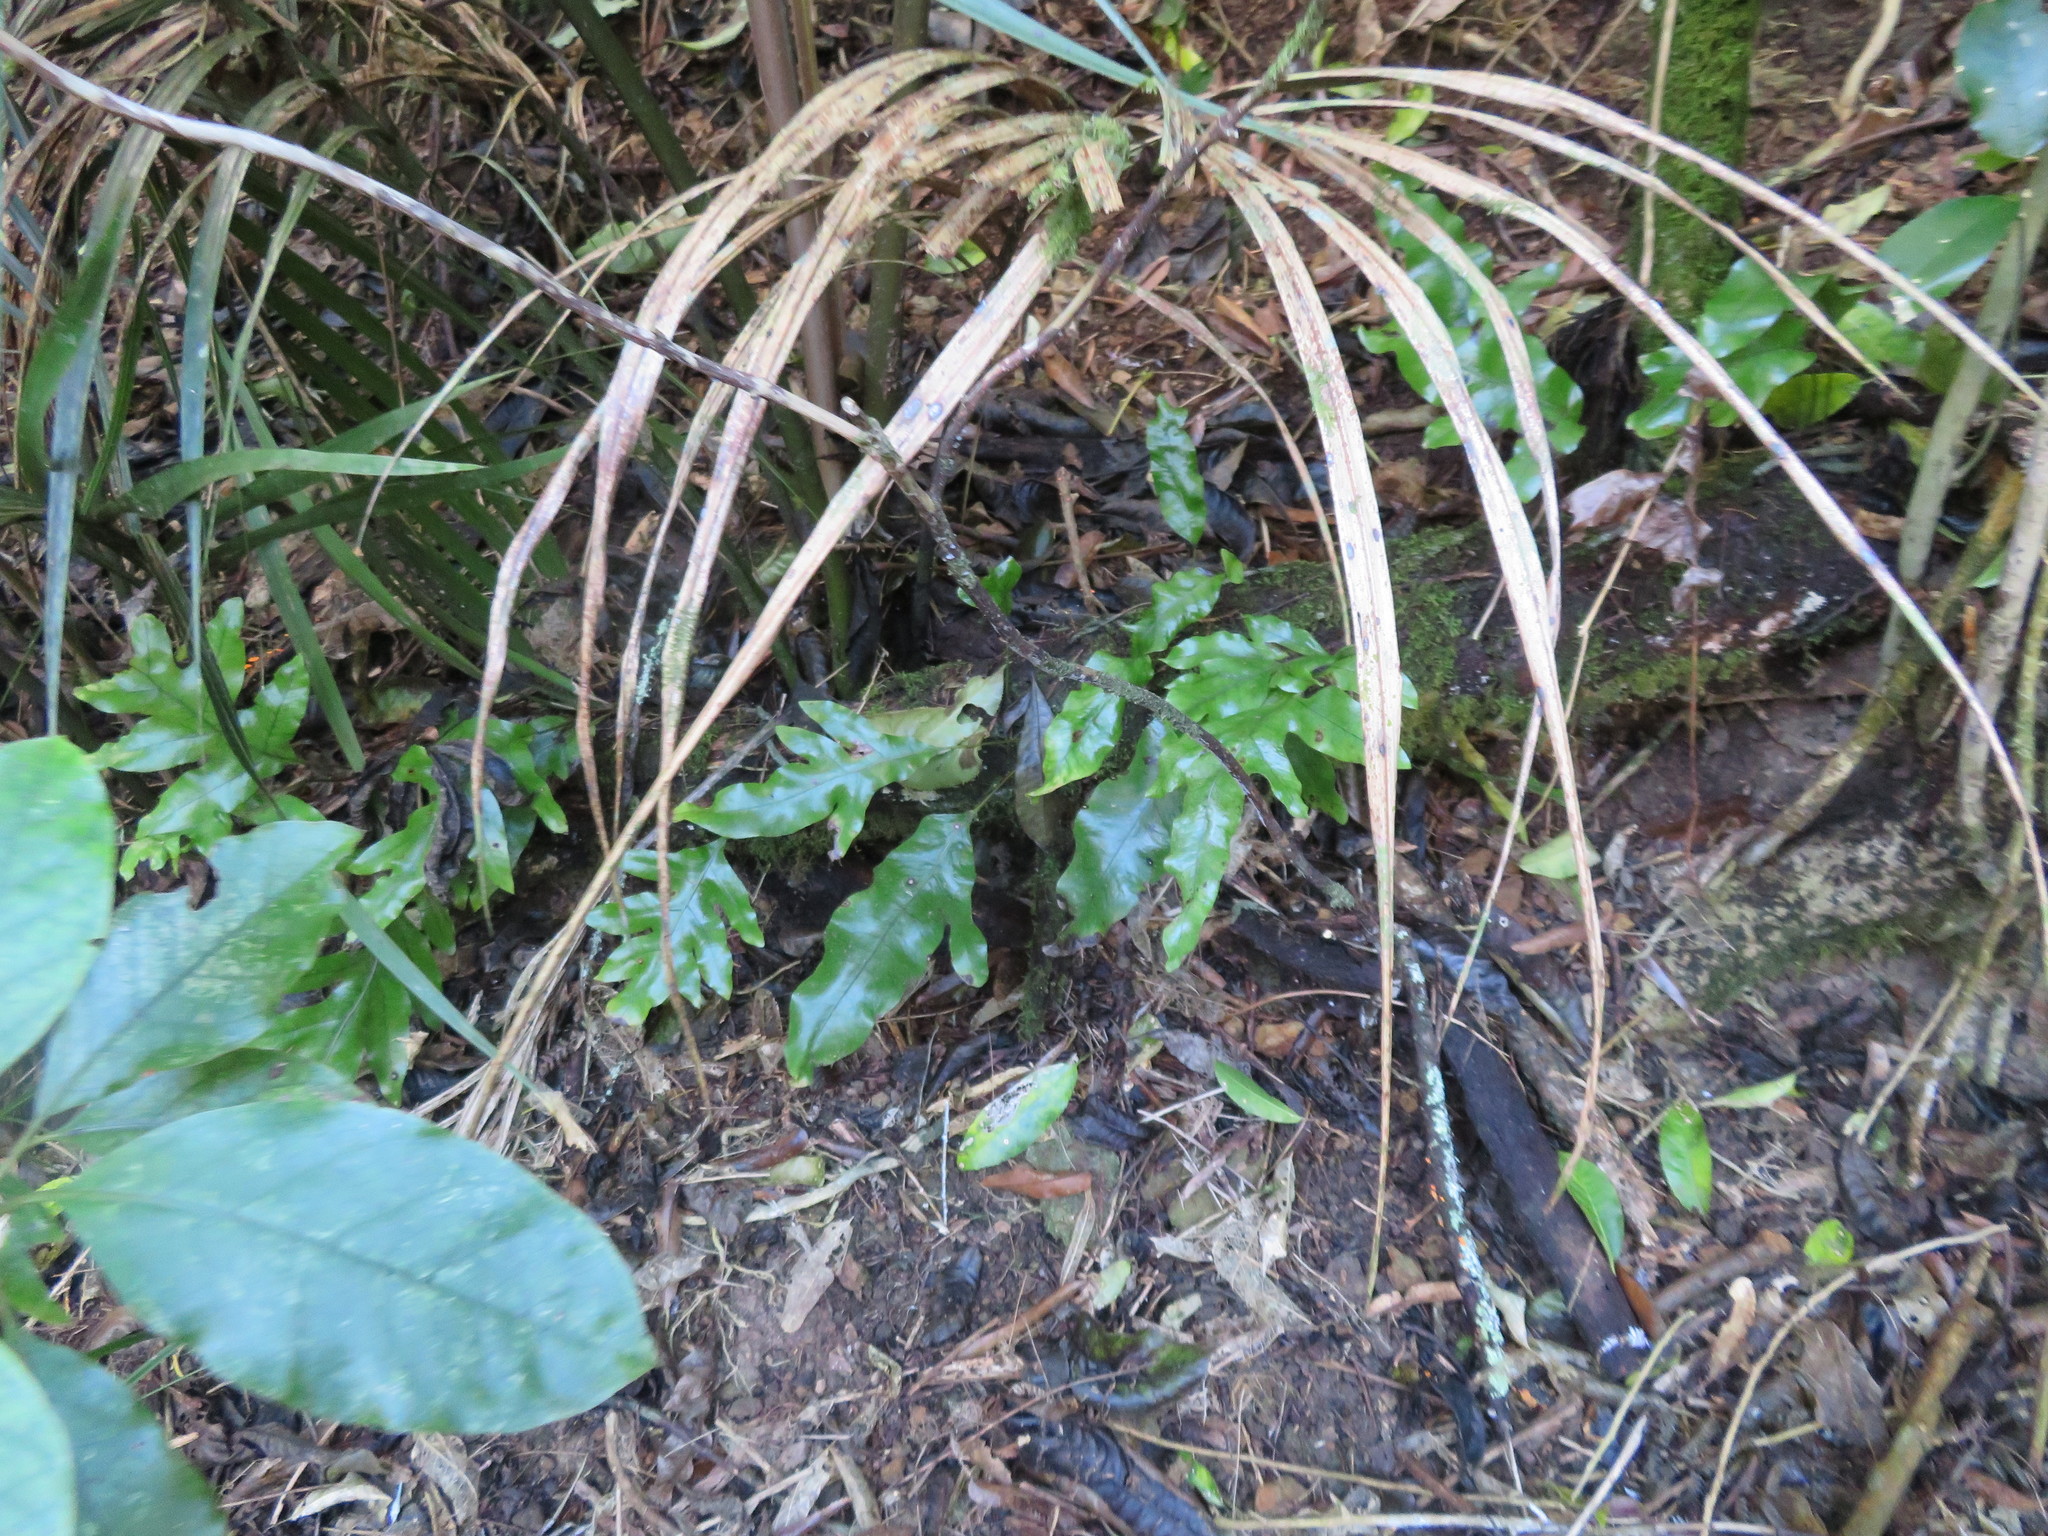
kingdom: Plantae
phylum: Tracheophyta
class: Polypodiopsida
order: Polypodiales
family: Polypodiaceae
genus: Lecanopteris
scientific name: Lecanopteris pustulata
